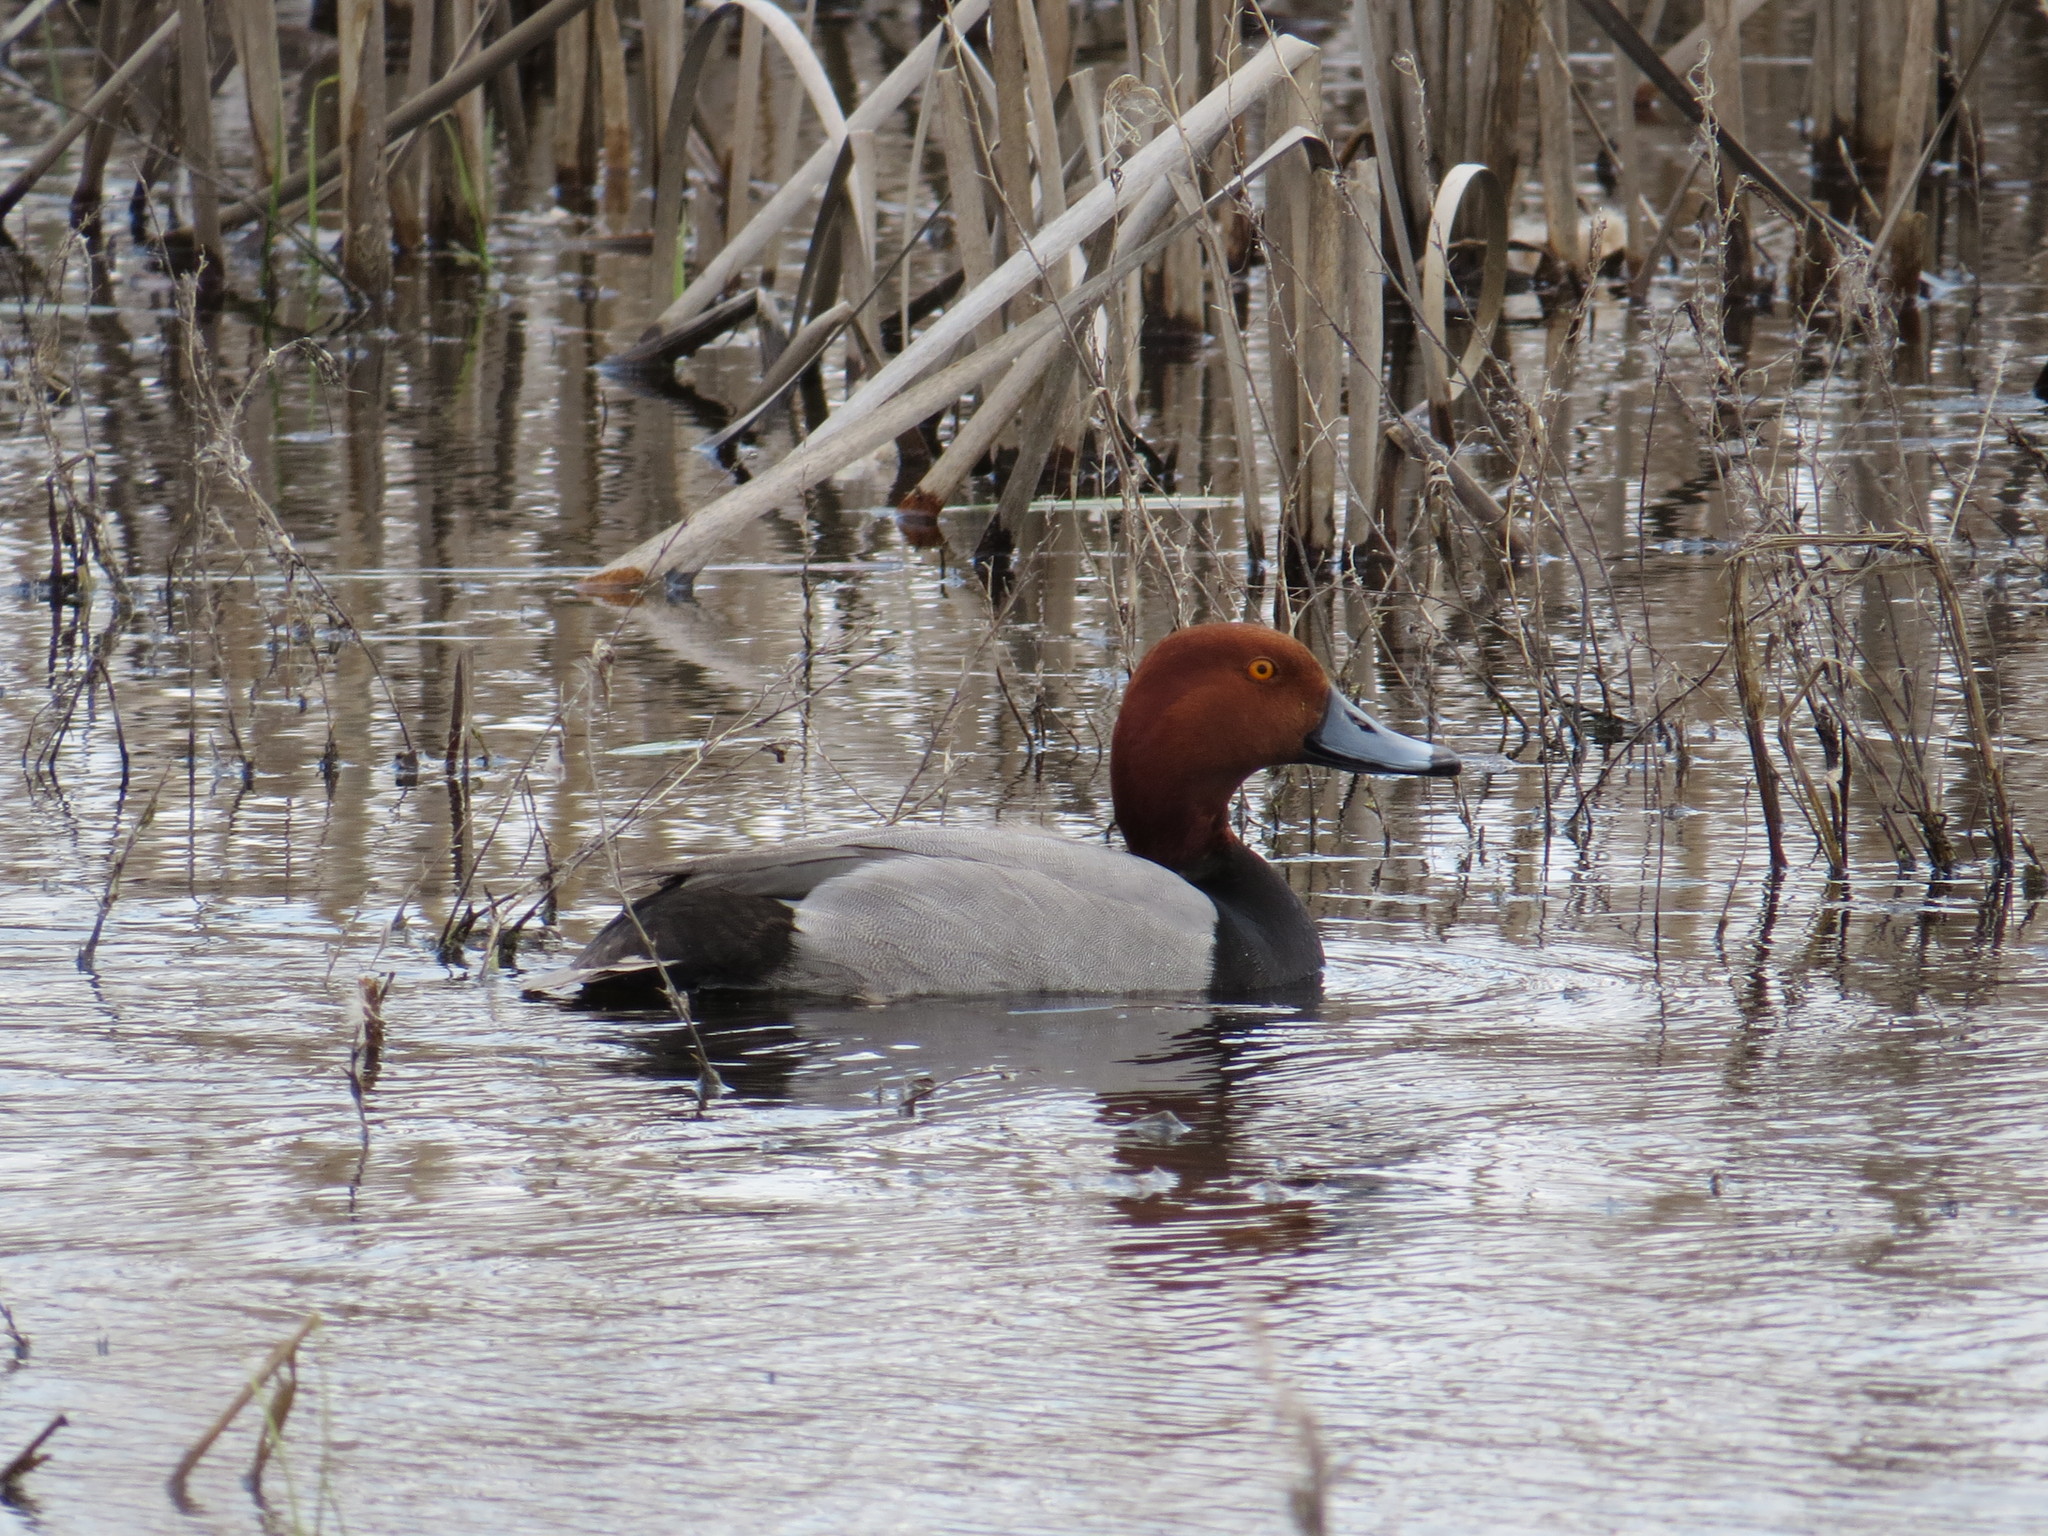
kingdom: Animalia
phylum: Chordata
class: Aves
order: Anseriformes
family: Anatidae
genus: Aythya
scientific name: Aythya americana
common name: Redhead
